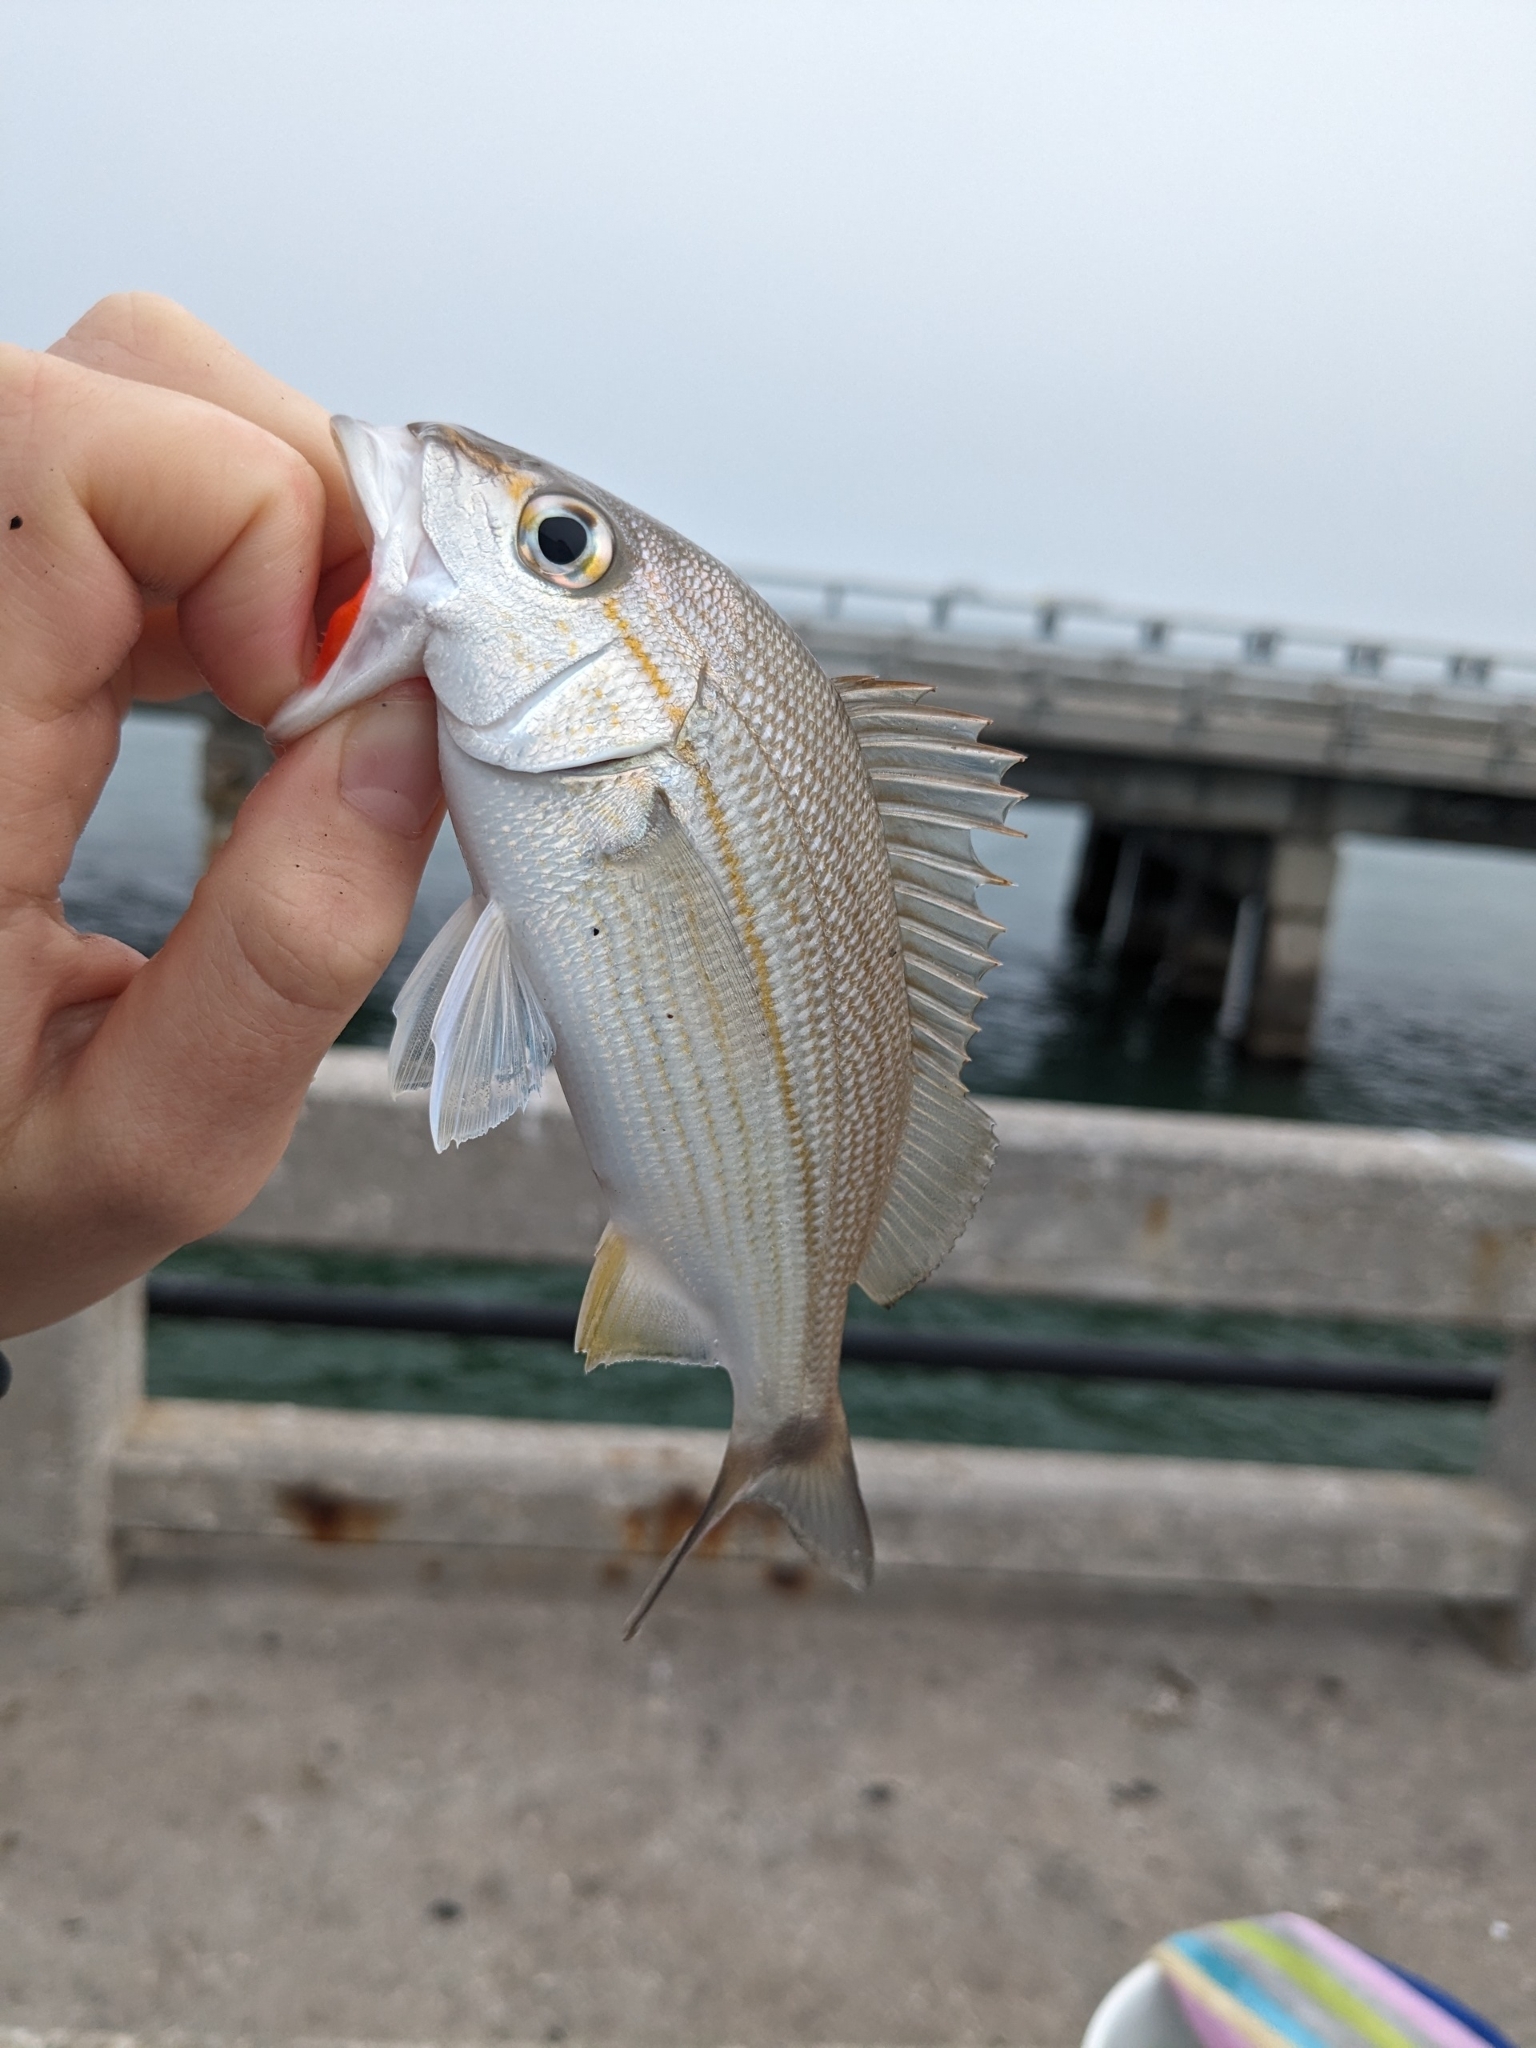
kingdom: Animalia
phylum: Chordata
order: Perciformes
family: Haemulidae
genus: Haemulon
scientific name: Haemulon aurolineatum
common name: Tomtate
